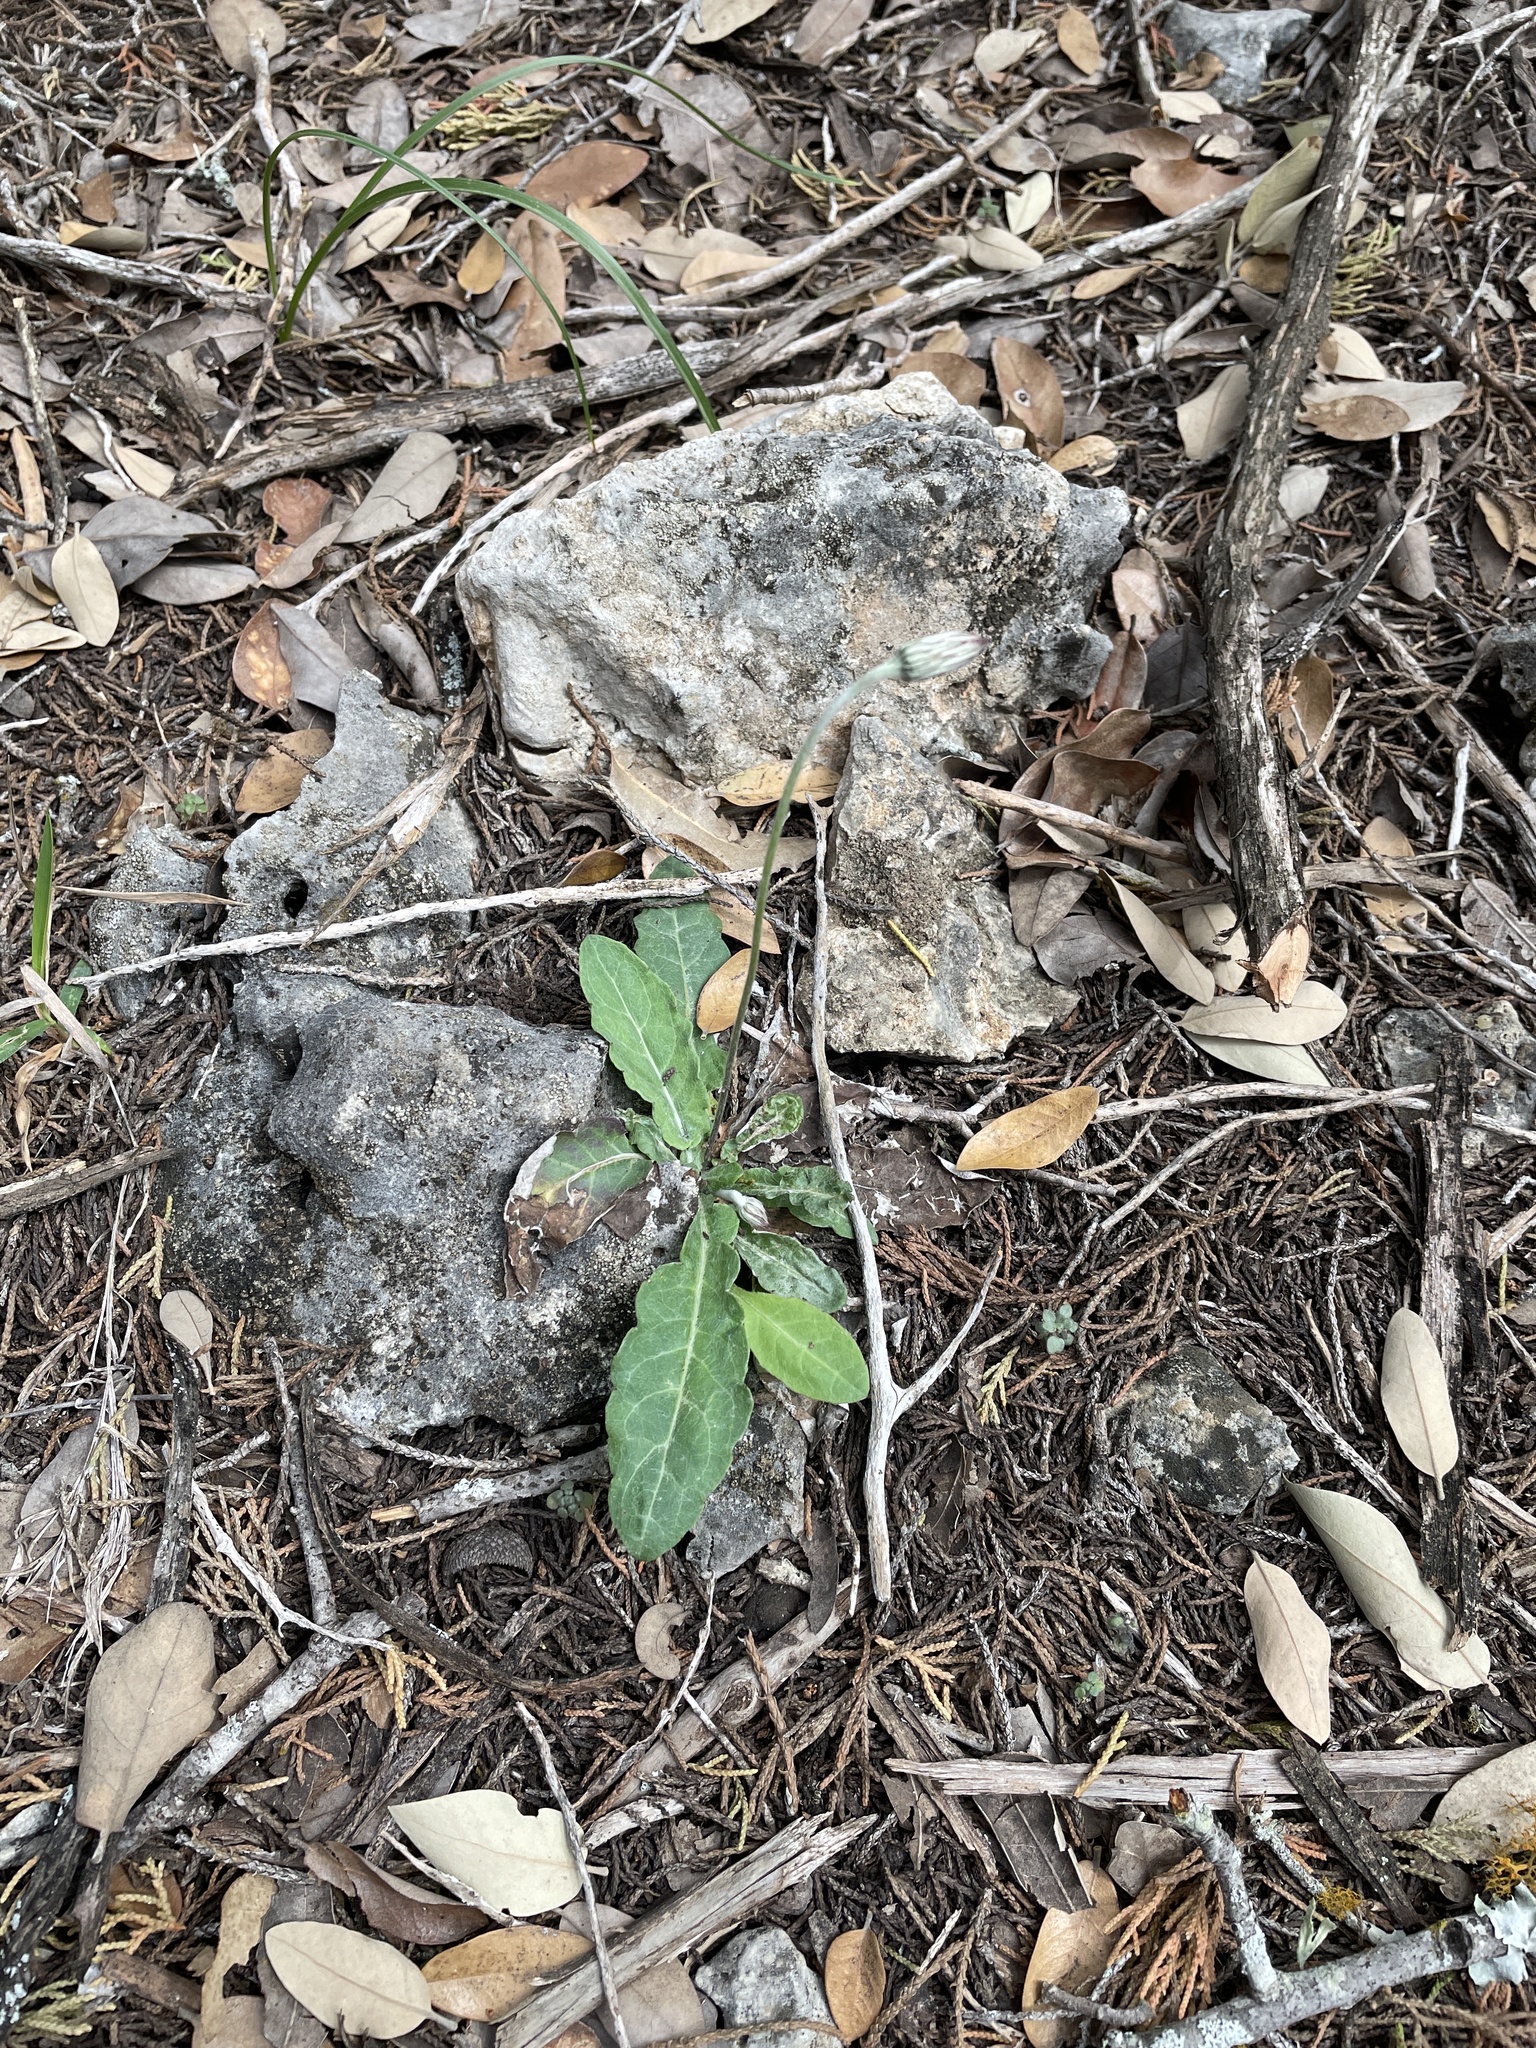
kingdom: Plantae
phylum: Tracheophyta
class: Magnoliopsida
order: Asterales
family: Asteraceae
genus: Chaptalia
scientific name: Chaptalia texana
